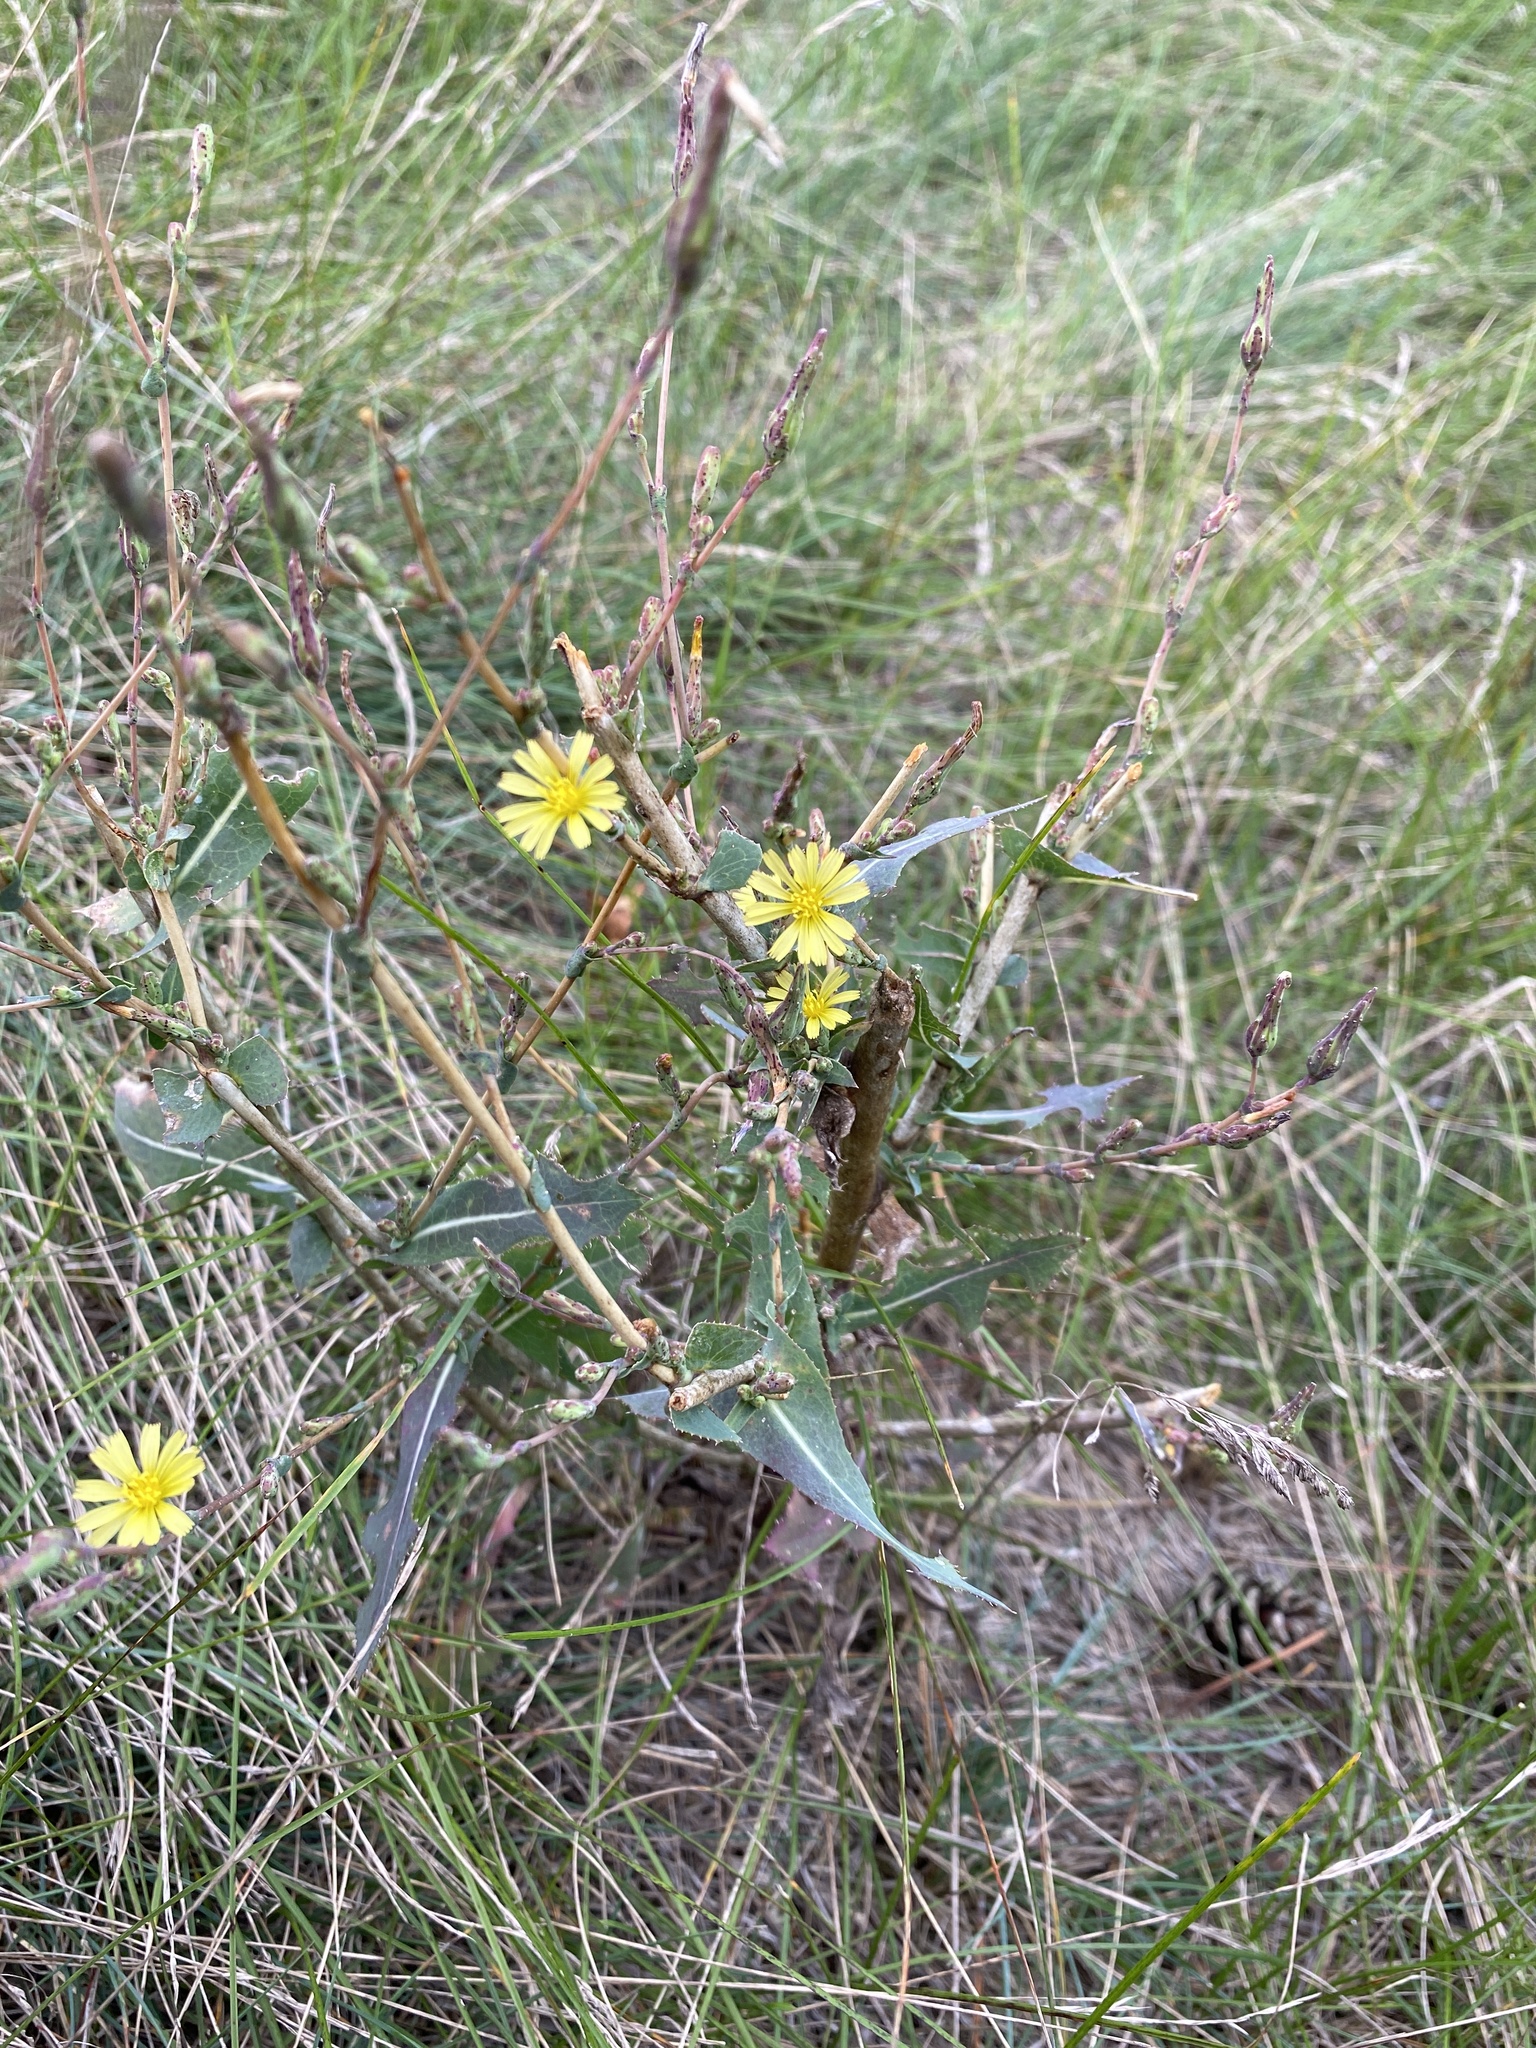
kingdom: Plantae
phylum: Tracheophyta
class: Magnoliopsida
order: Asterales
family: Asteraceae
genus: Lactuca
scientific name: Lactuca serriola
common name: Prickly lettuce
